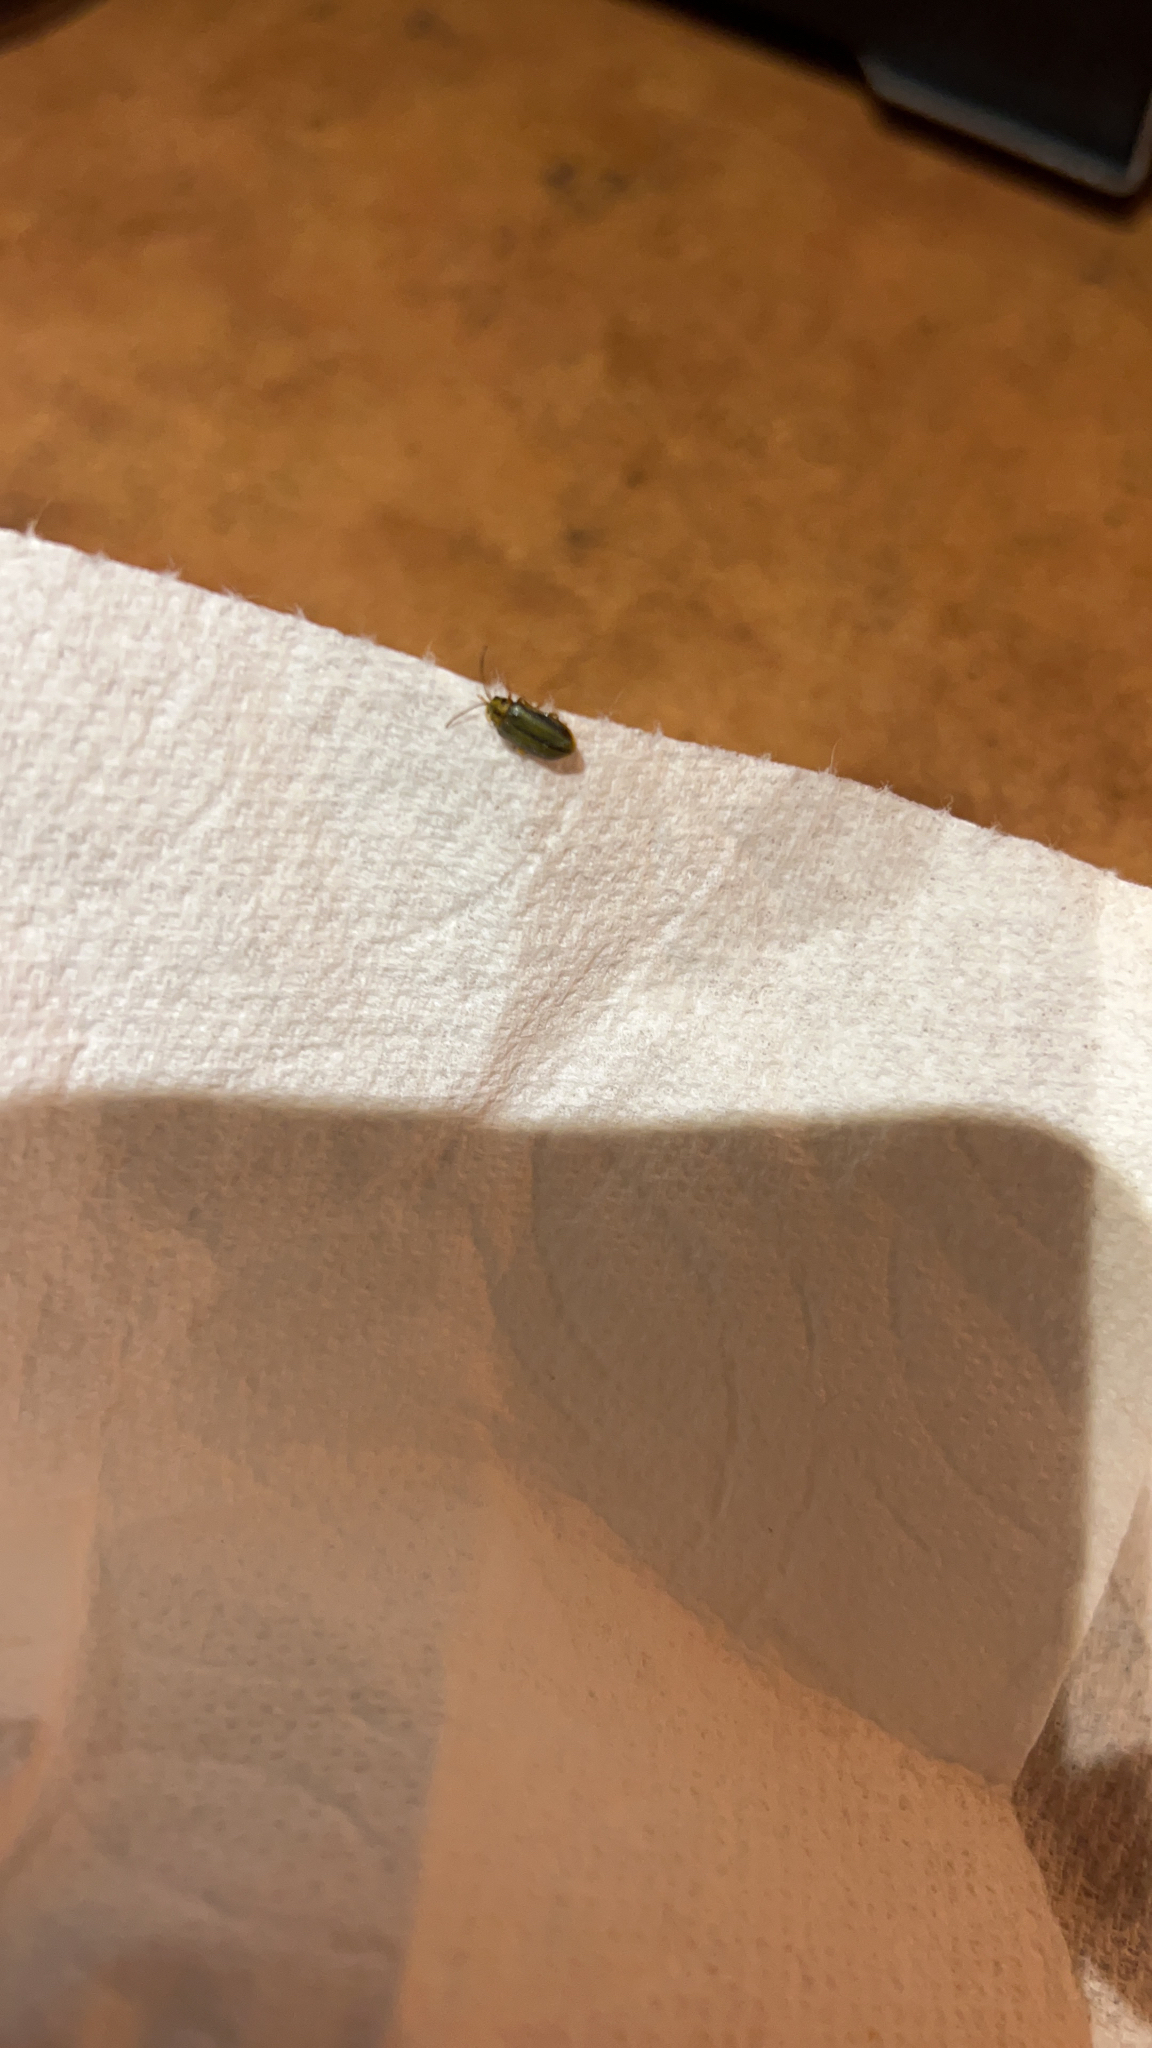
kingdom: Animalia
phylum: Arthropoda
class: Insecta
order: Coleoptera
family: Chrysomelidae
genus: Xanthogaleruca
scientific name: Xanthogaleruca luteola
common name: Elm leaf beetle
